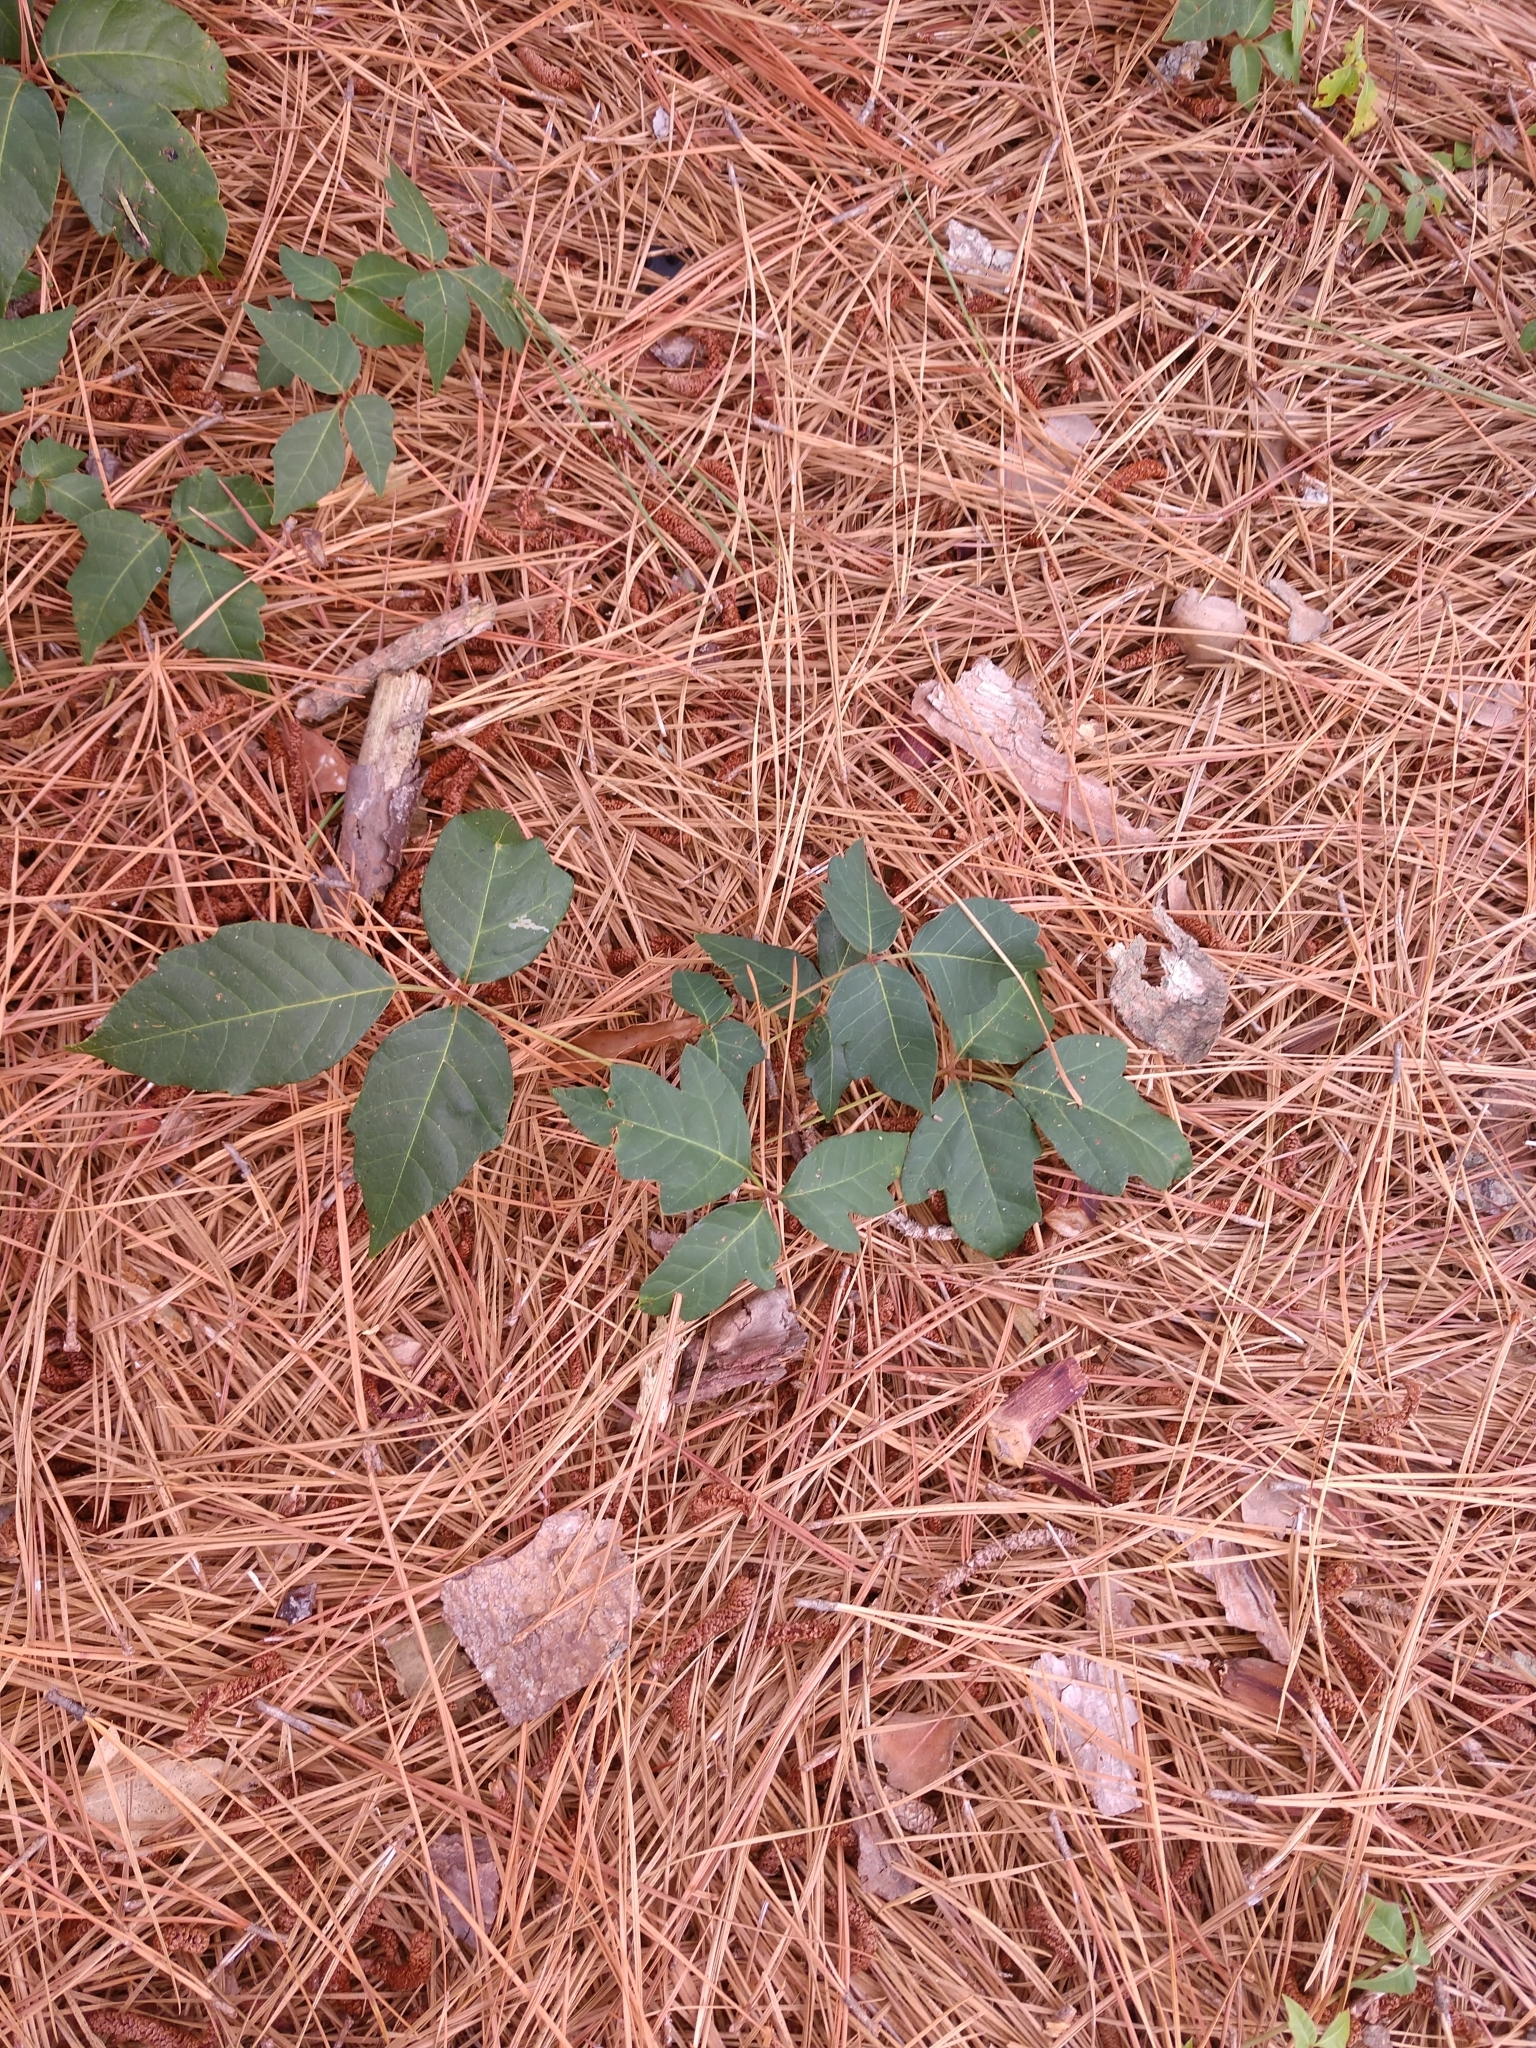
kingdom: Plantae
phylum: Tracheophyta
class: Magnoliopsida
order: Sapindales
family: Anacardiaceae
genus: Toxicodendron
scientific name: Toxicodendron radicans
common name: Poison ivy
